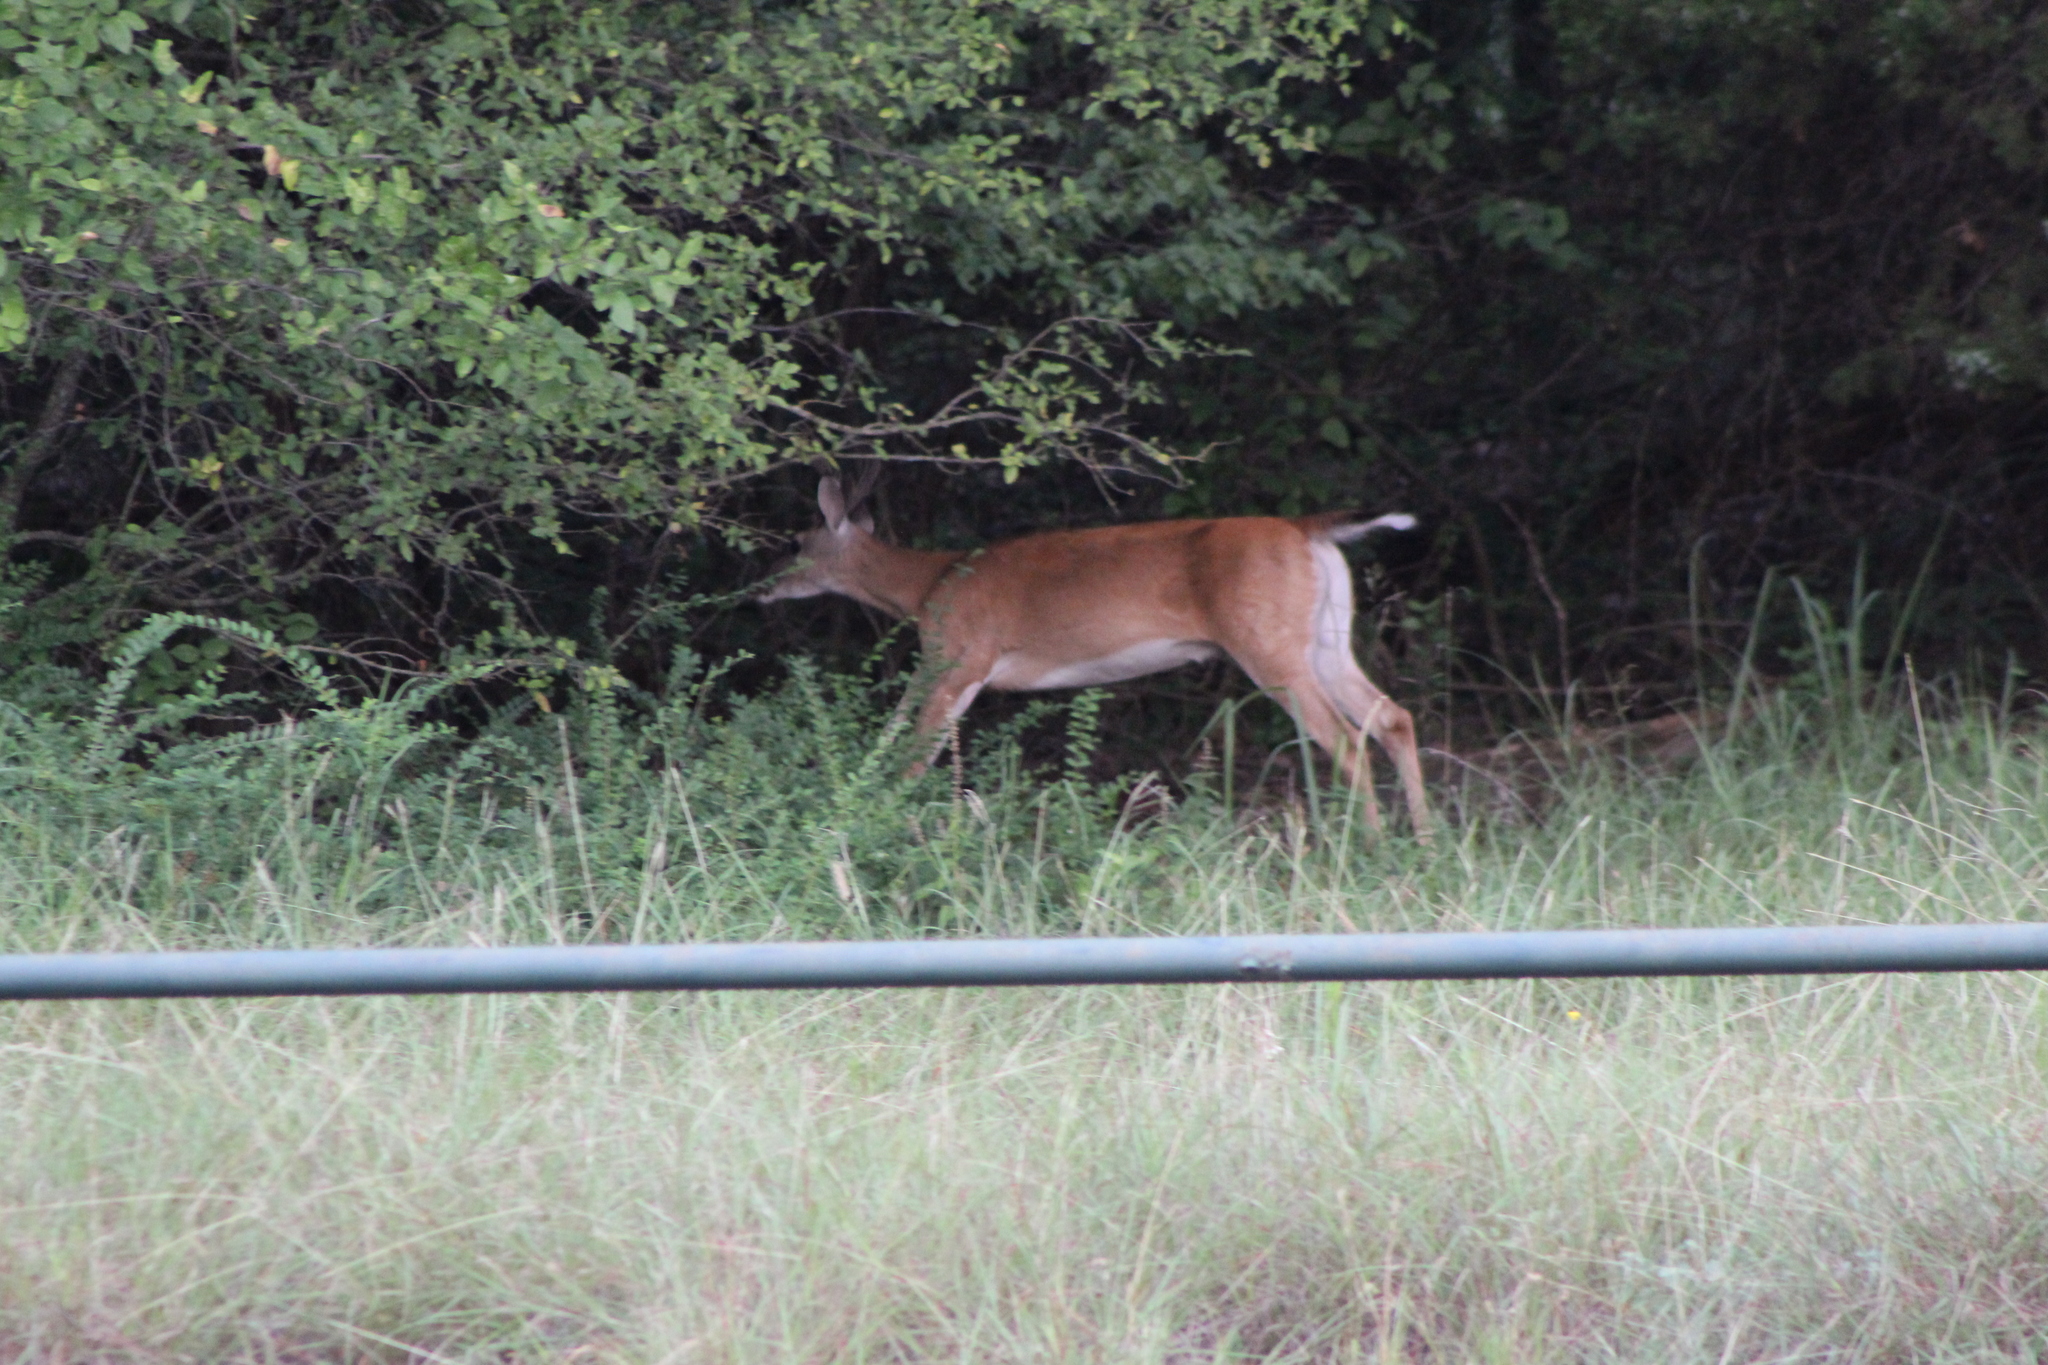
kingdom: Animalia
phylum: Chordata
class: Mammalia
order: Artiodactyla
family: Cervidae
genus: Odocoileus
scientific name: Odocoileus virginianus
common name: White-tailed deer
